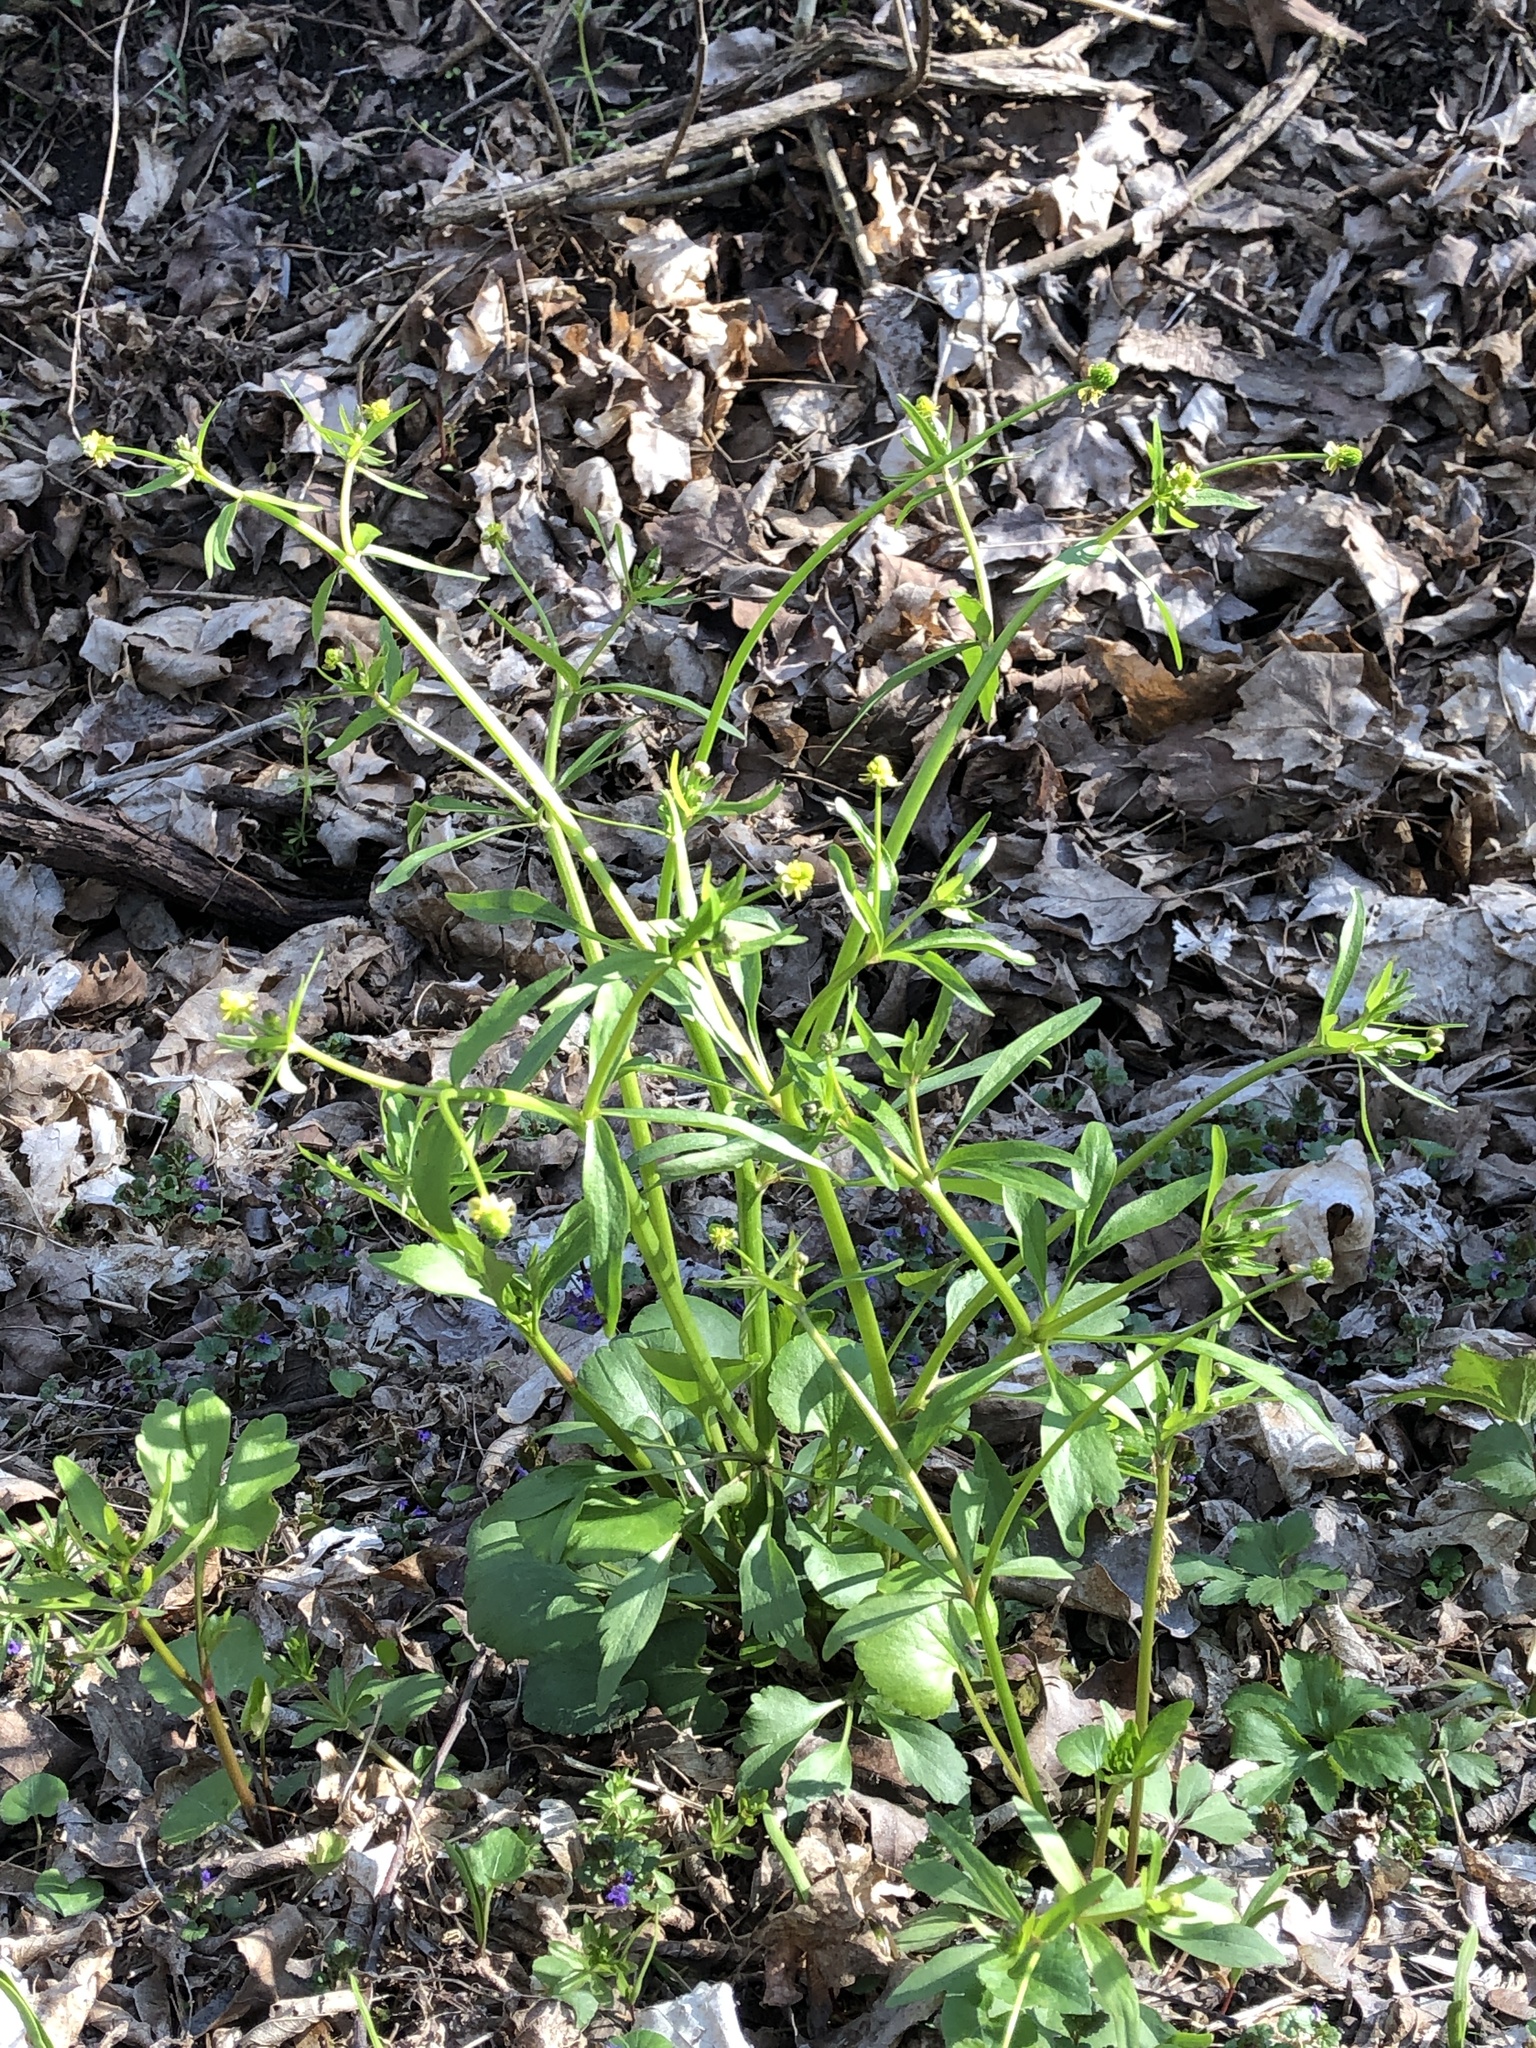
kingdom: Plantae
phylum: Tracheophyta
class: Magnoliopsida
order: Ranunculales
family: Ranunculaceae
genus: Ranunculus
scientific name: Ranunculus abortivus
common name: Early wood buttercup
